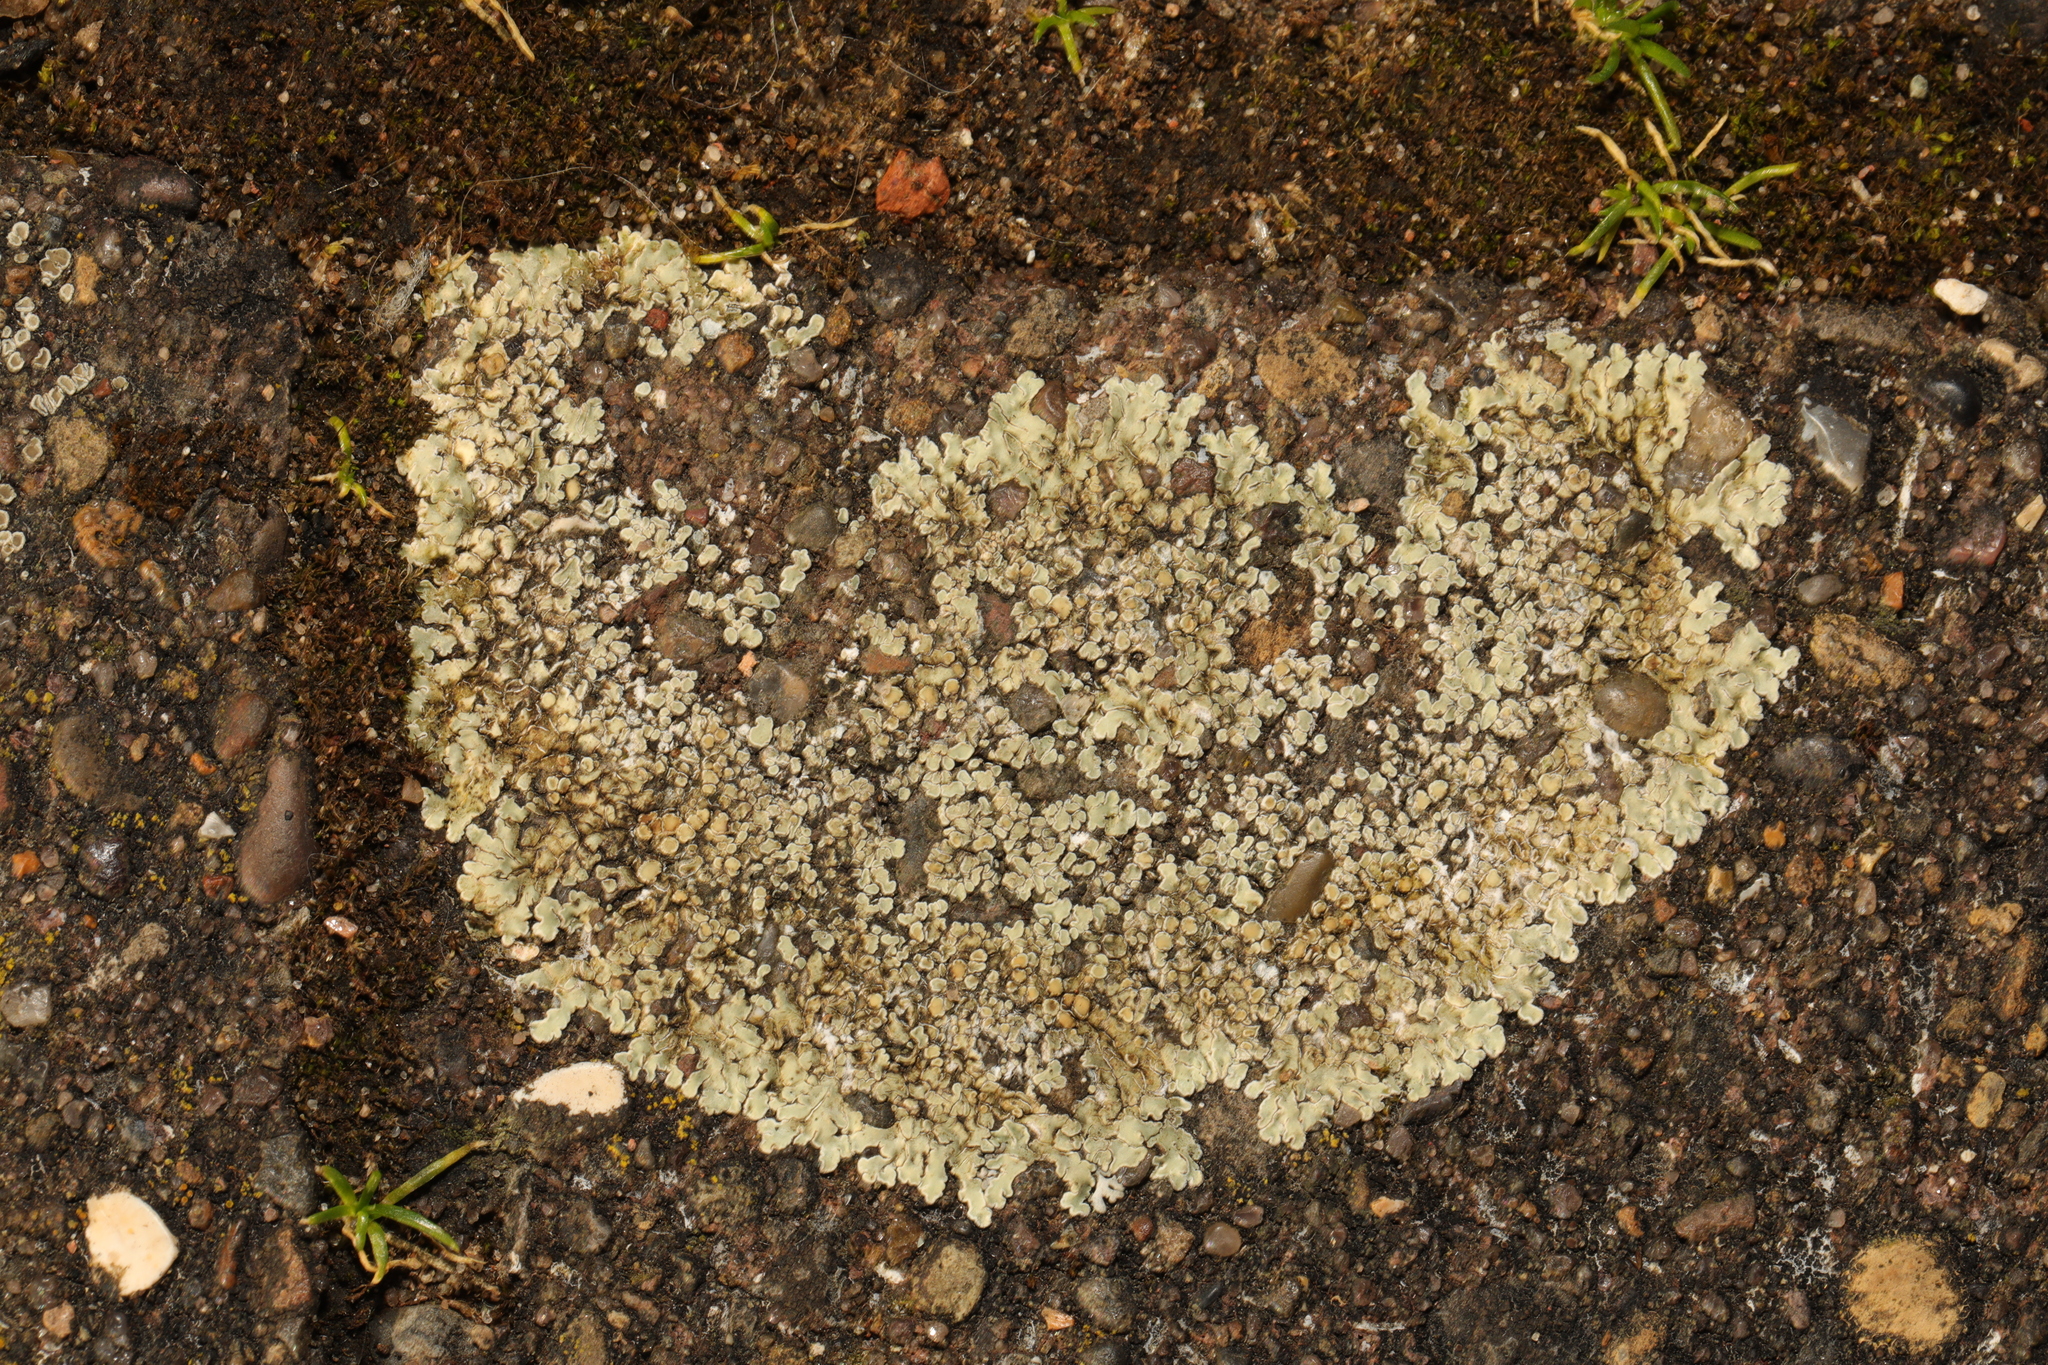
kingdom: Fungi
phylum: Ascomycota
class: Lecanoromycetes
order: Lecanorales
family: Lecanoraceae
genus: Protoparmeliopsis
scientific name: Protoparmeliopsis muralis
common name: Stonewall rim lichen
